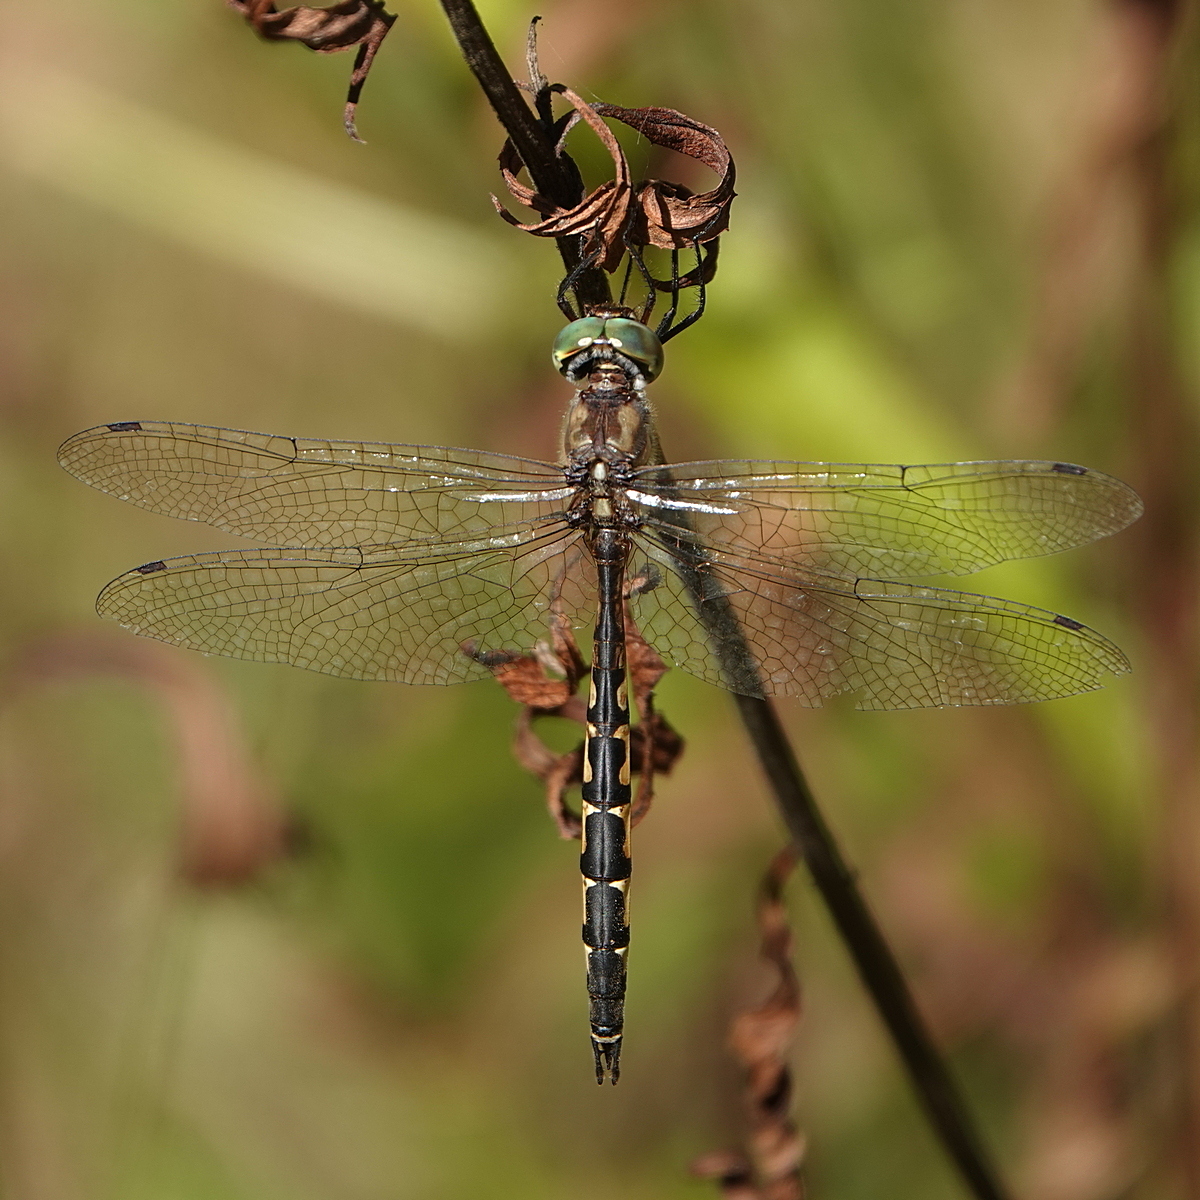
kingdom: Animalia
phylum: Arthropoda
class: Insecta
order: Odonata
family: Corduliidae
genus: Hemicordulia
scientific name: Hemicordulia australiae
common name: Sentry dragonfly
